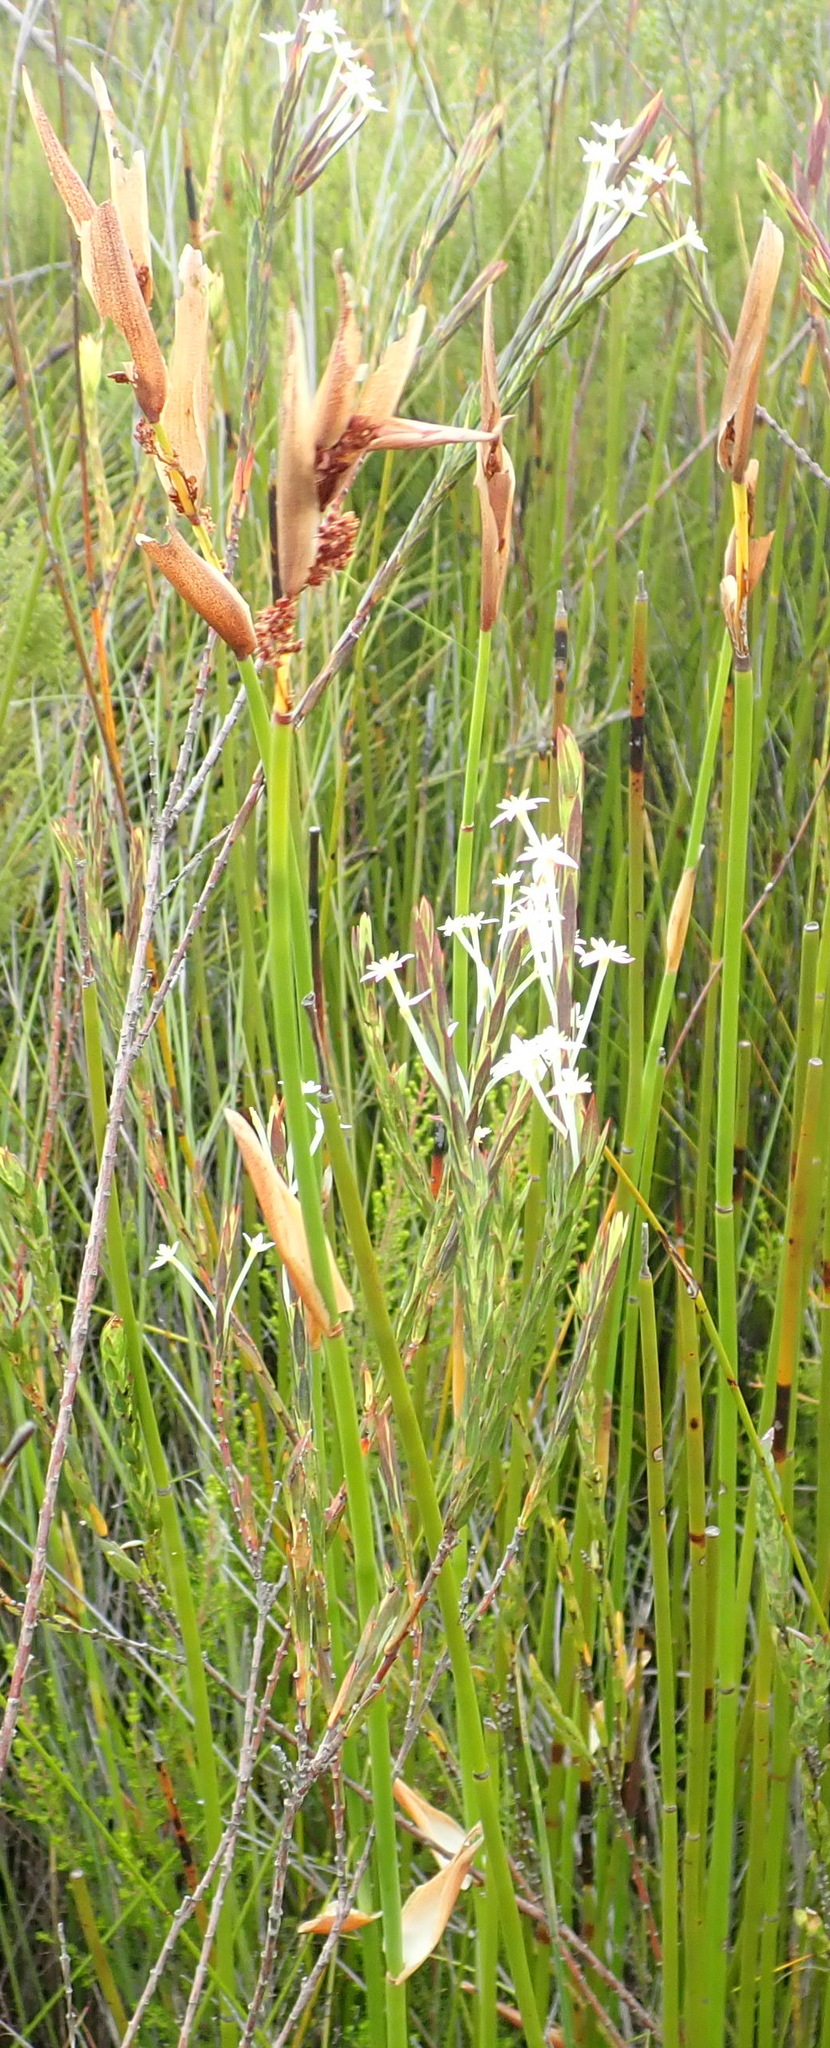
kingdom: Plantae
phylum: Tracheophyta
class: Magnoliopsida
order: Malvales
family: Thymelaeaceae
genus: Struthiola
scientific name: Struthiola myrsinites
